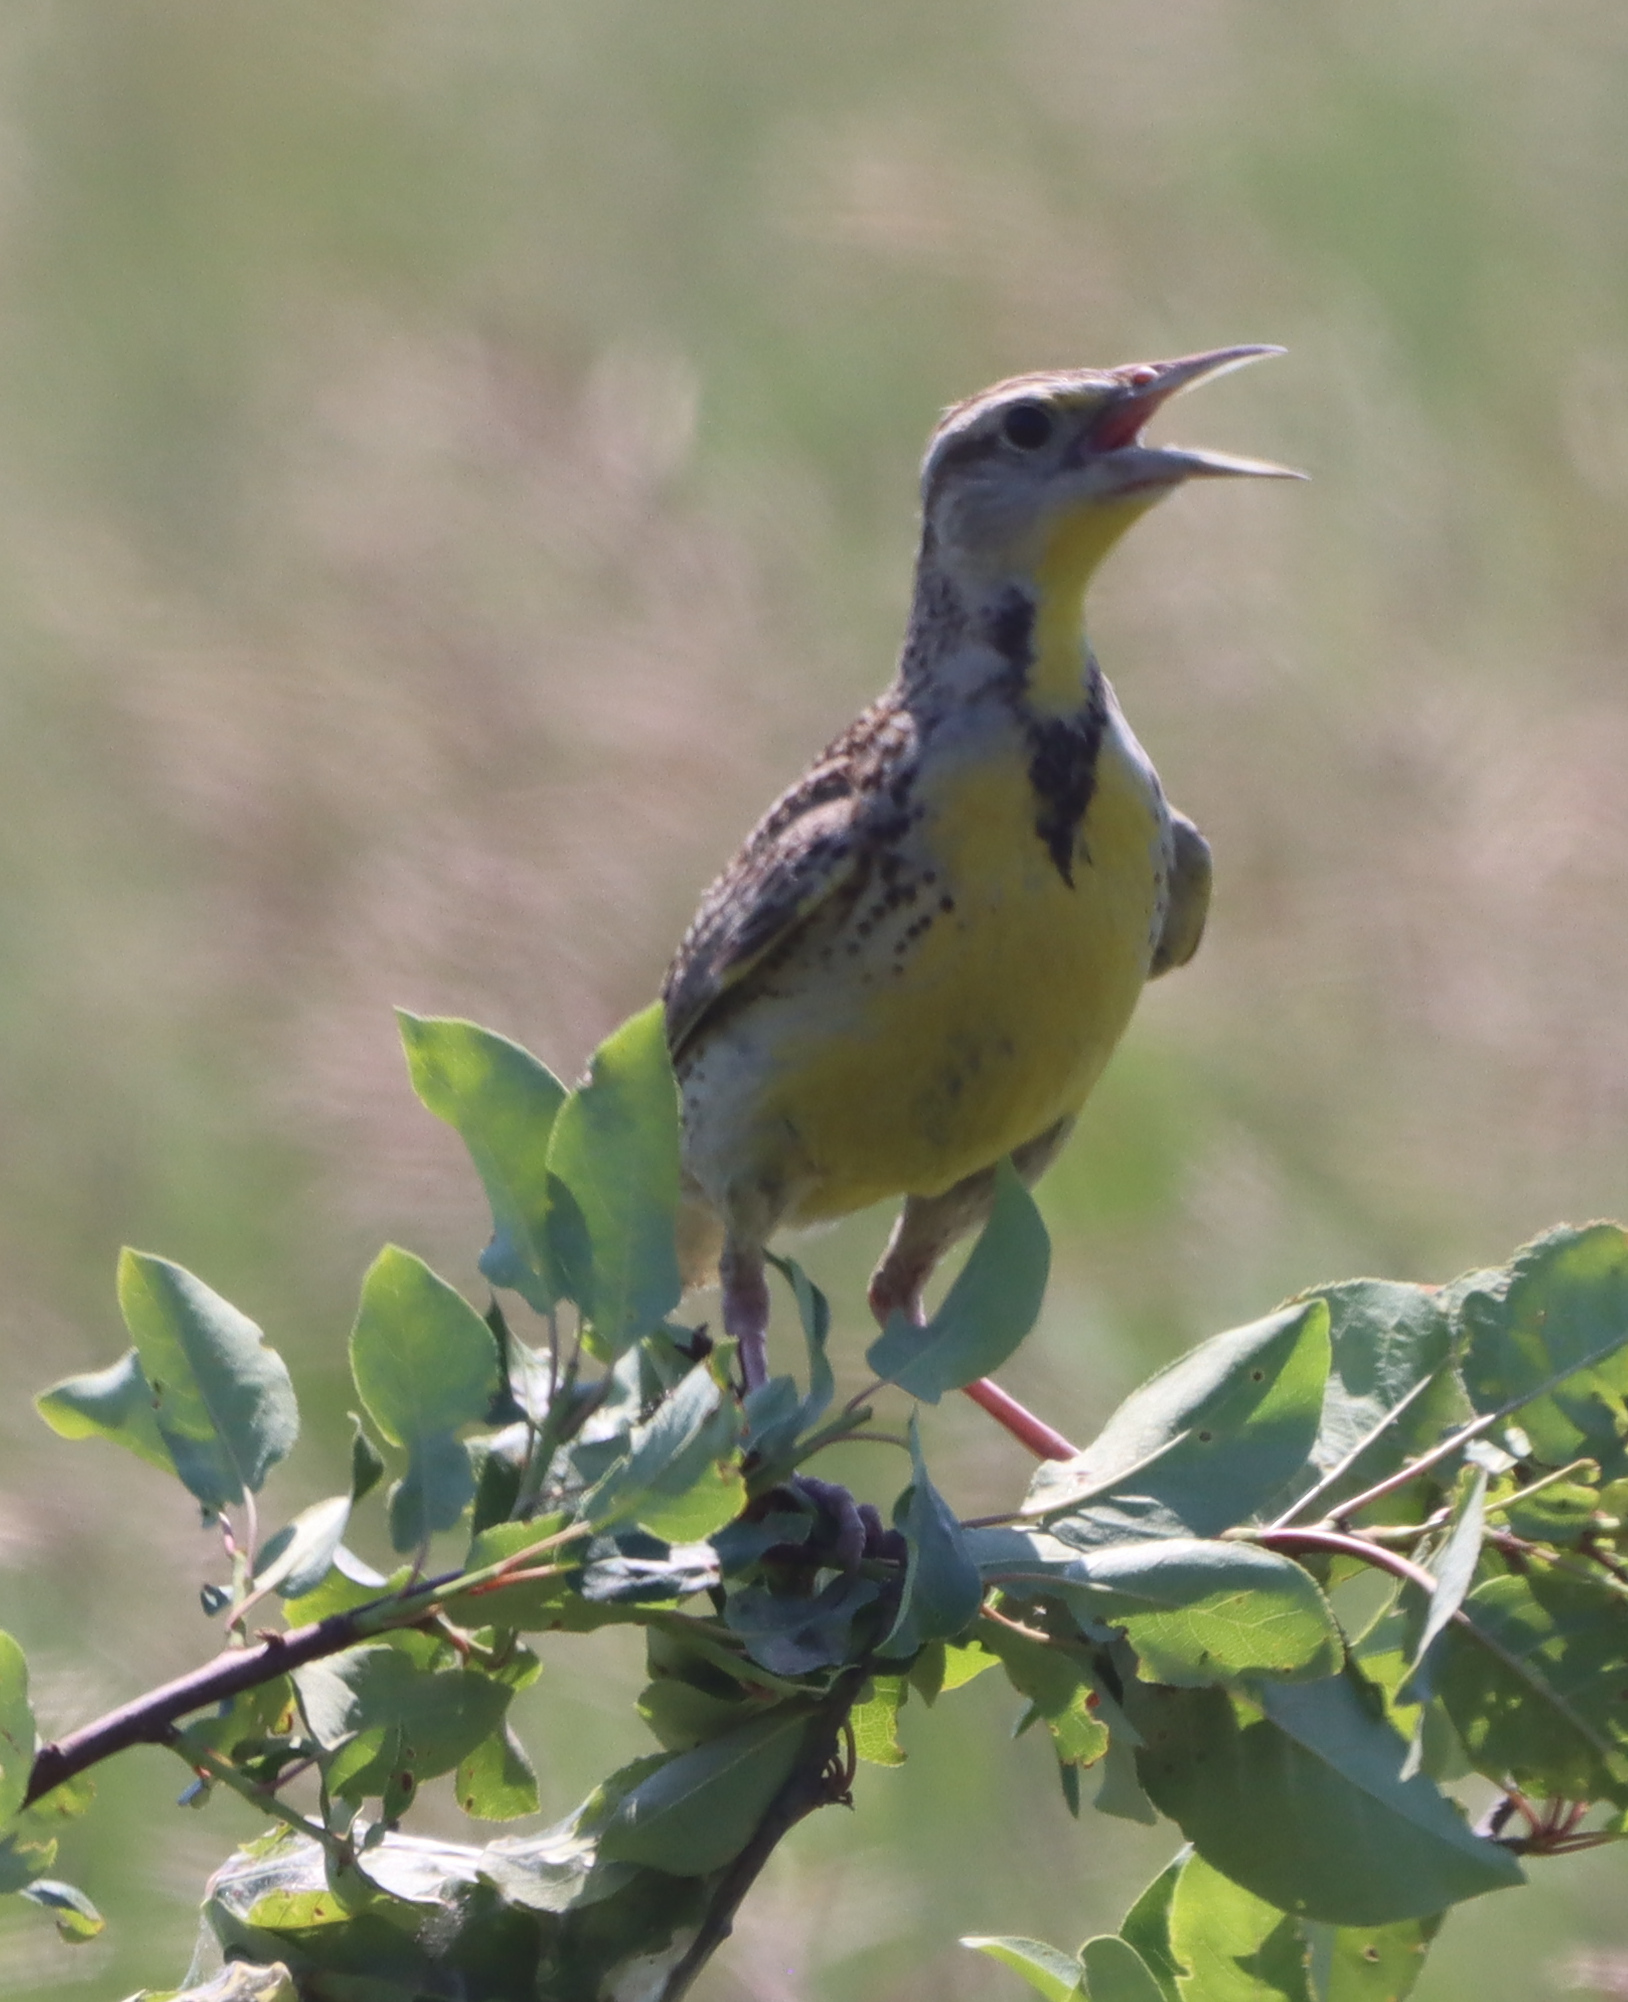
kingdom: Animalia
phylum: Chordata
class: Aves
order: Passeriformes
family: Icteridae
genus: Sturnella
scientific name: Sturnella neglecta
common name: Western meadowlark
